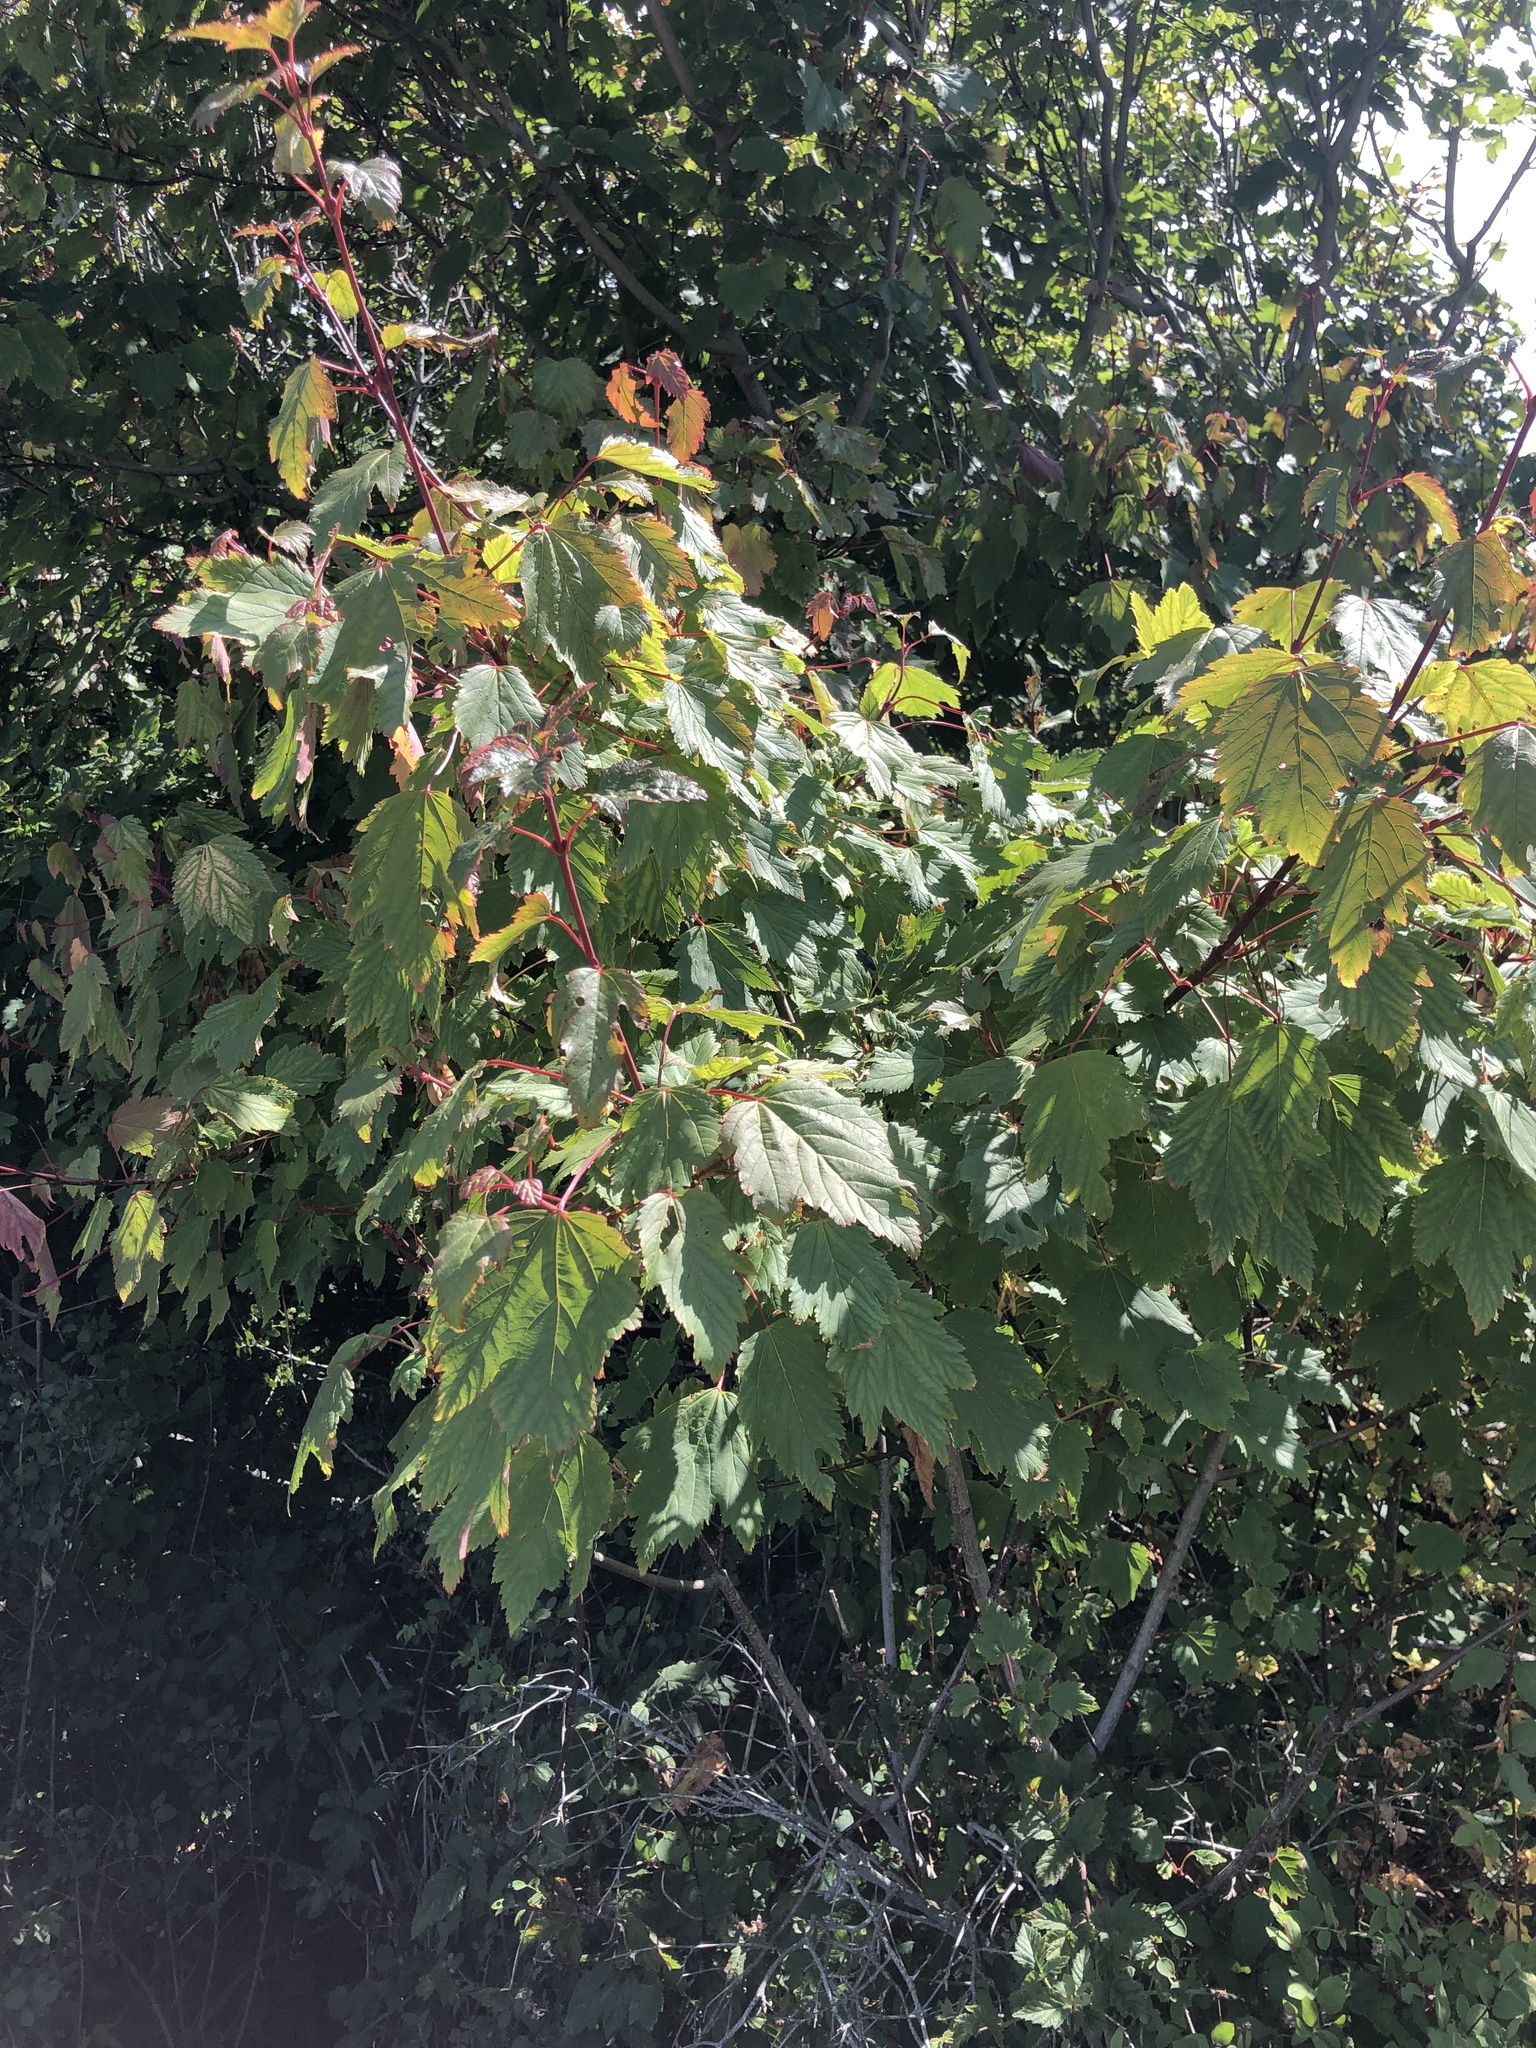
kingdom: Plantae
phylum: Tracheophyta
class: Magnoliopsida
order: Sapindales
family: Sapindaceae
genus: Acer
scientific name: Acer glabrum
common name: Rocky mountain maple
